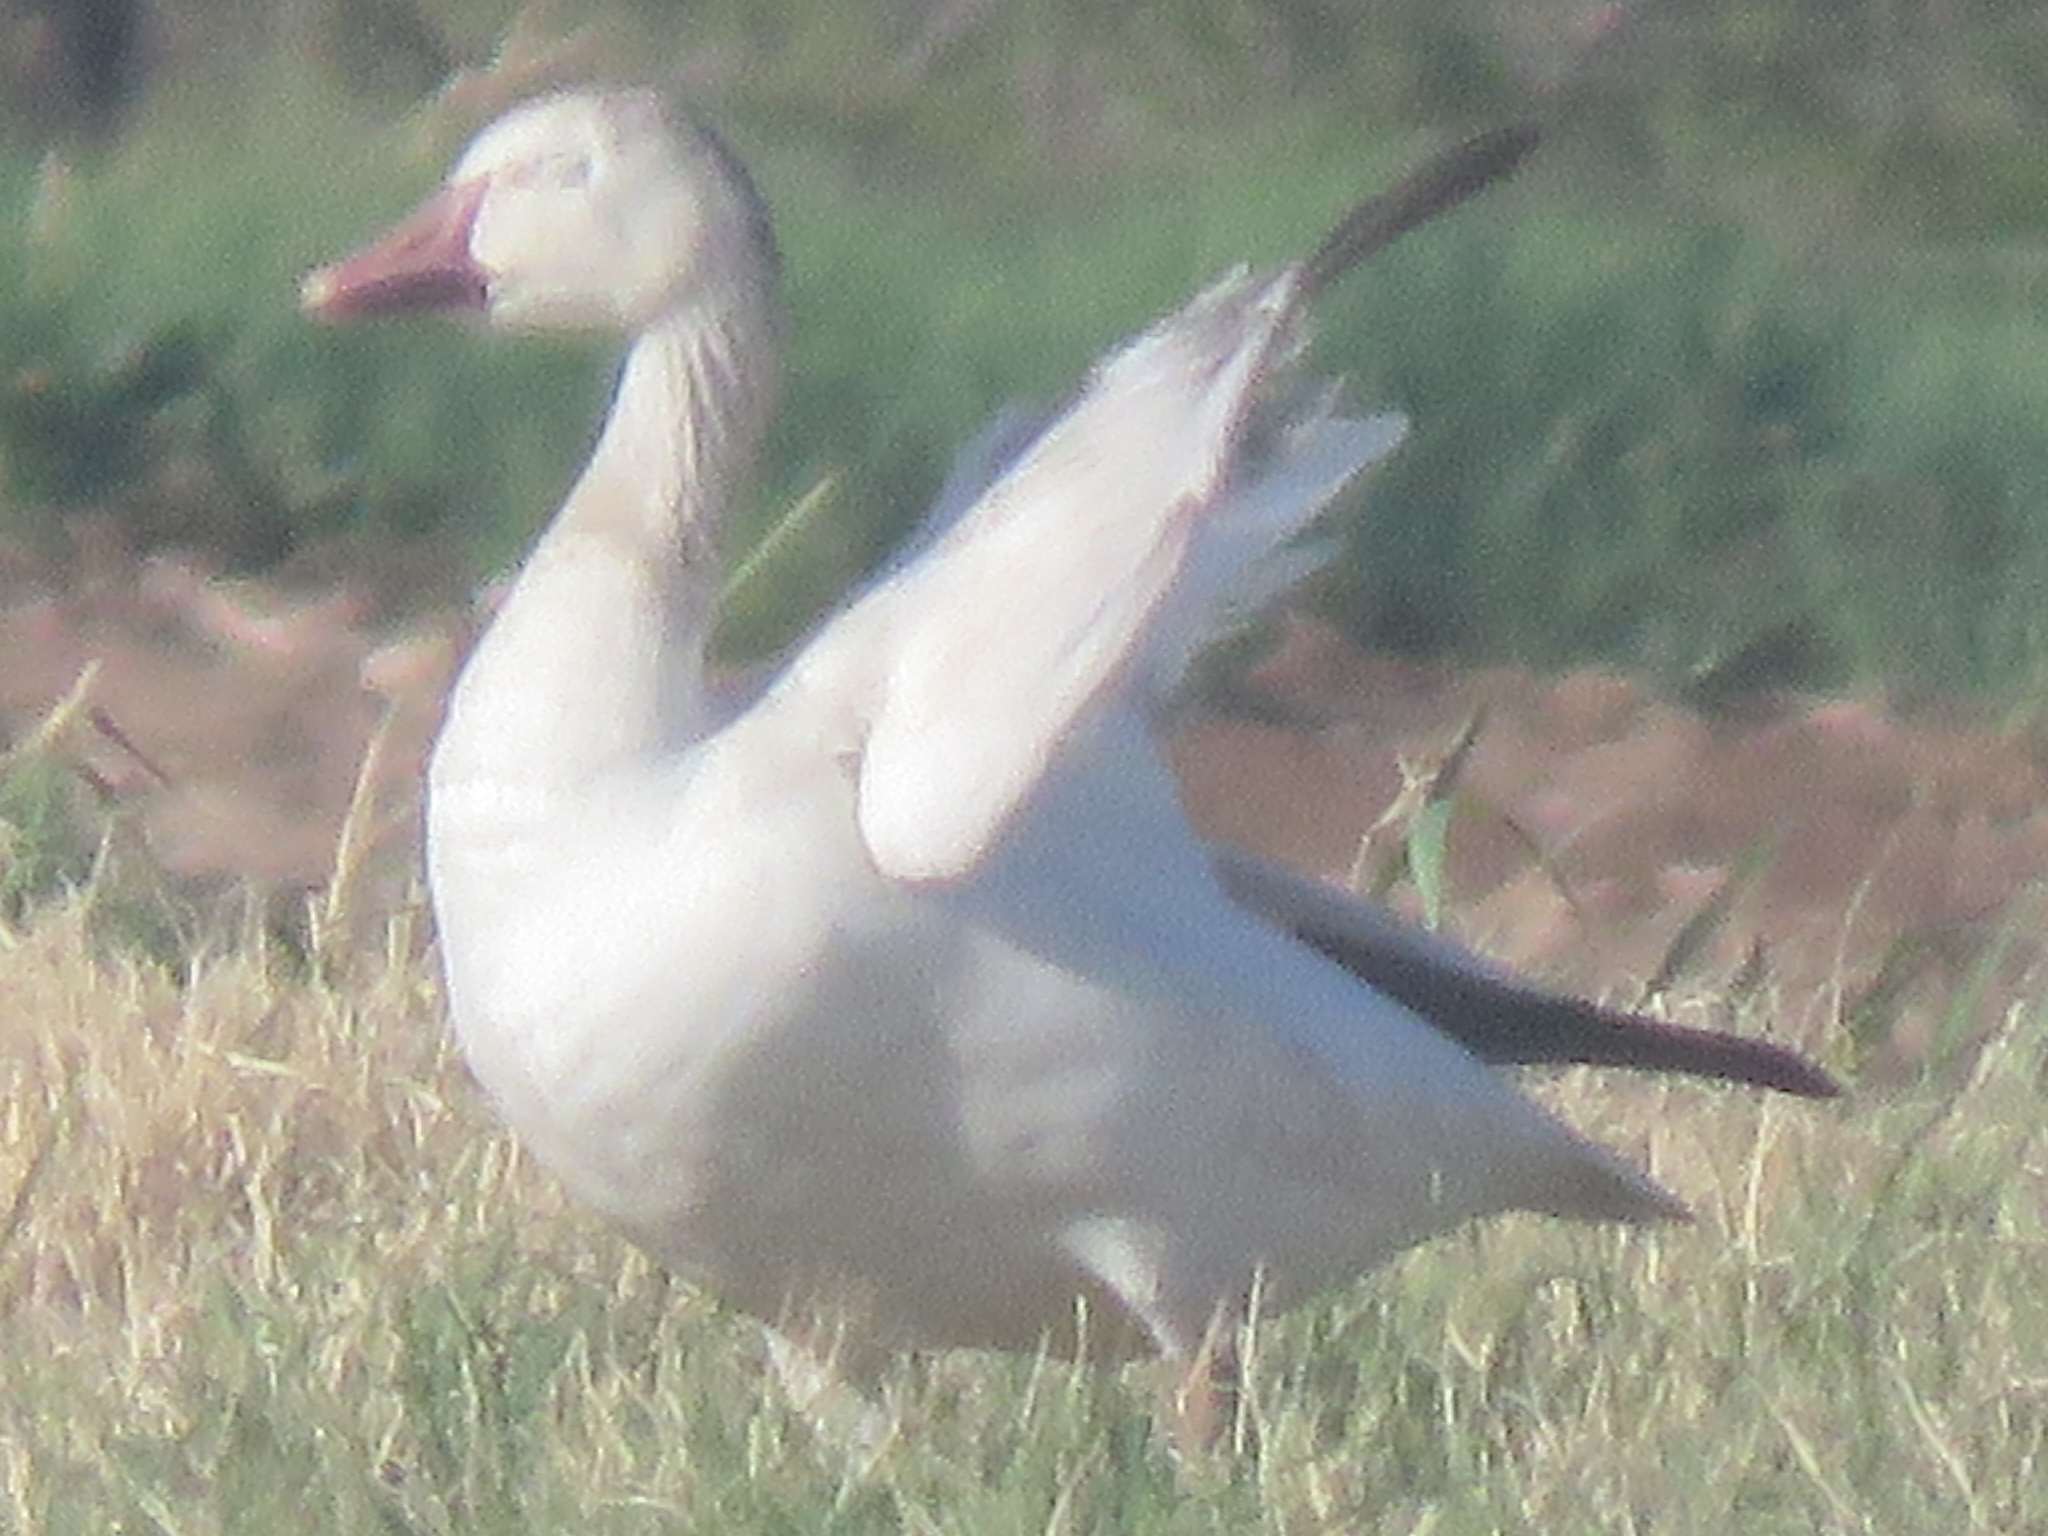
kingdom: Animalia
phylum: Chordata
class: Aves
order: Anseriformes
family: Anatidae
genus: Anser
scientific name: Anser caerulescens
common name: Snow goose
